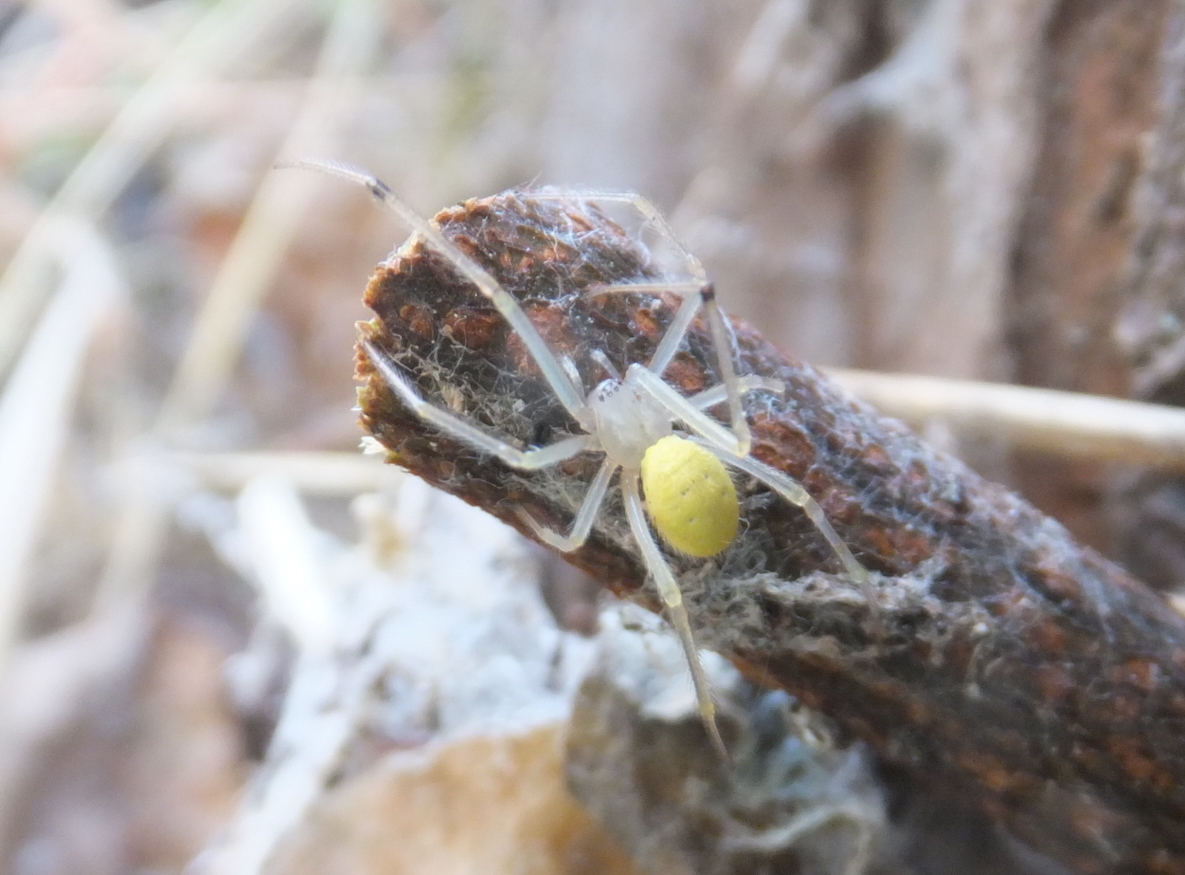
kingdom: Animalia
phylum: Arthropoda
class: Arachnida
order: Araneae
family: Theridiidae
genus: Heterotheridion
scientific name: Heterotheridion nigrovariegatum
